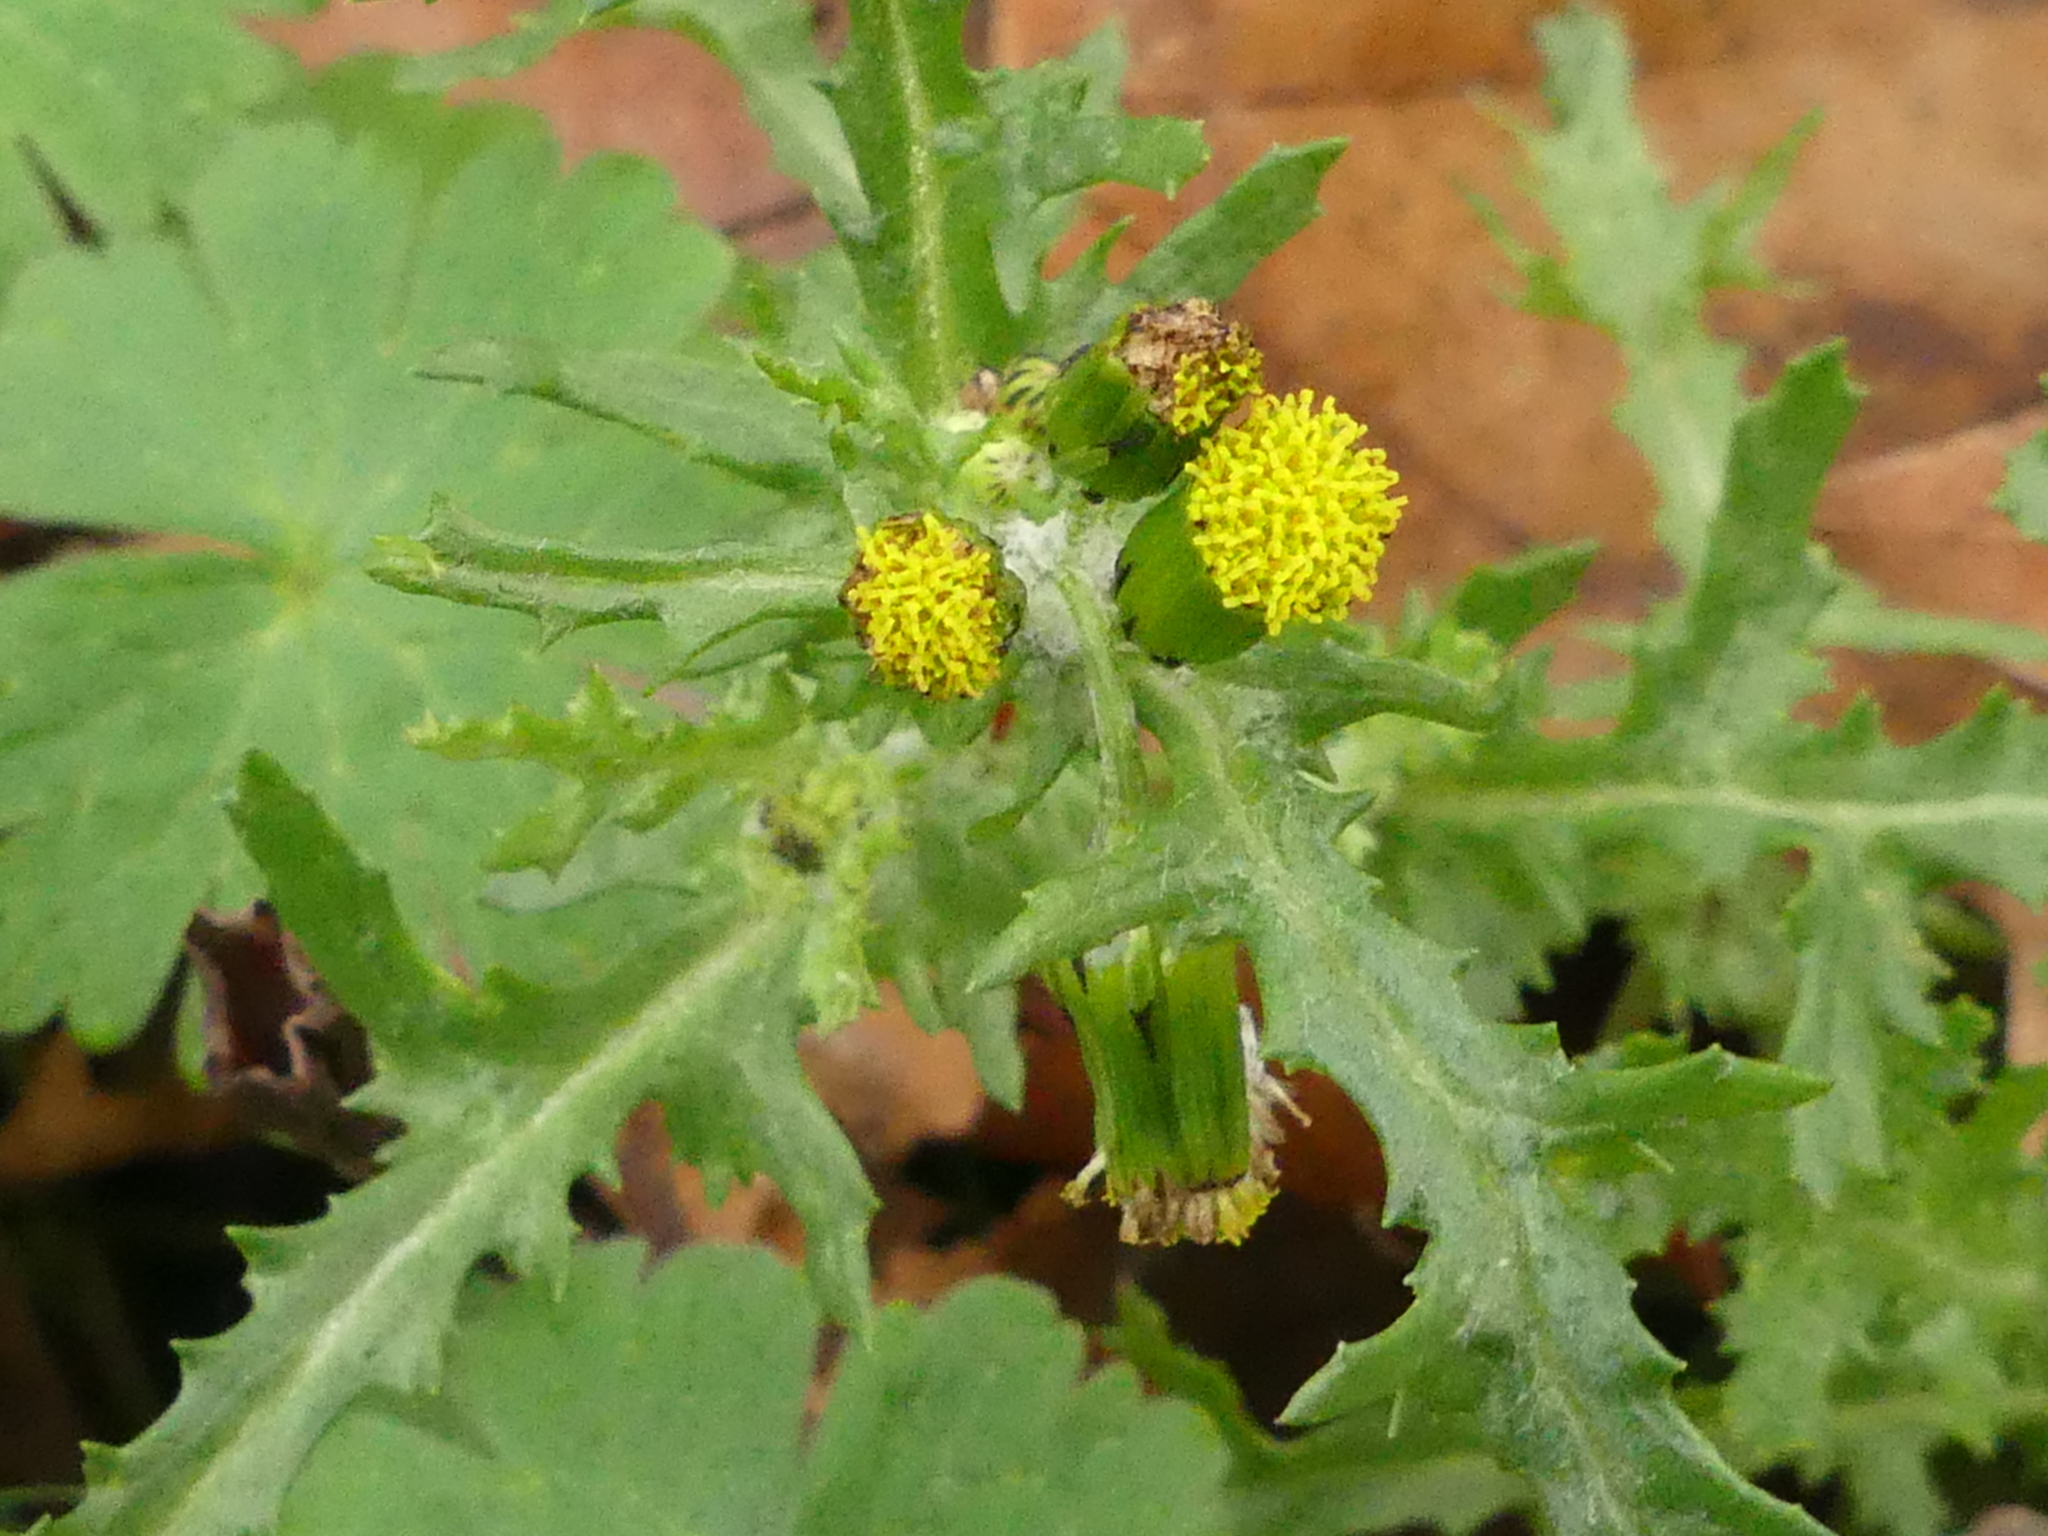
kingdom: Plantae
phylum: Tracheophyta
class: Magnoliopsida
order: Asterales
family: Asteraceae
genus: Senecio
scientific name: Senecio vulgaris
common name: Old-man-in-the-spring
